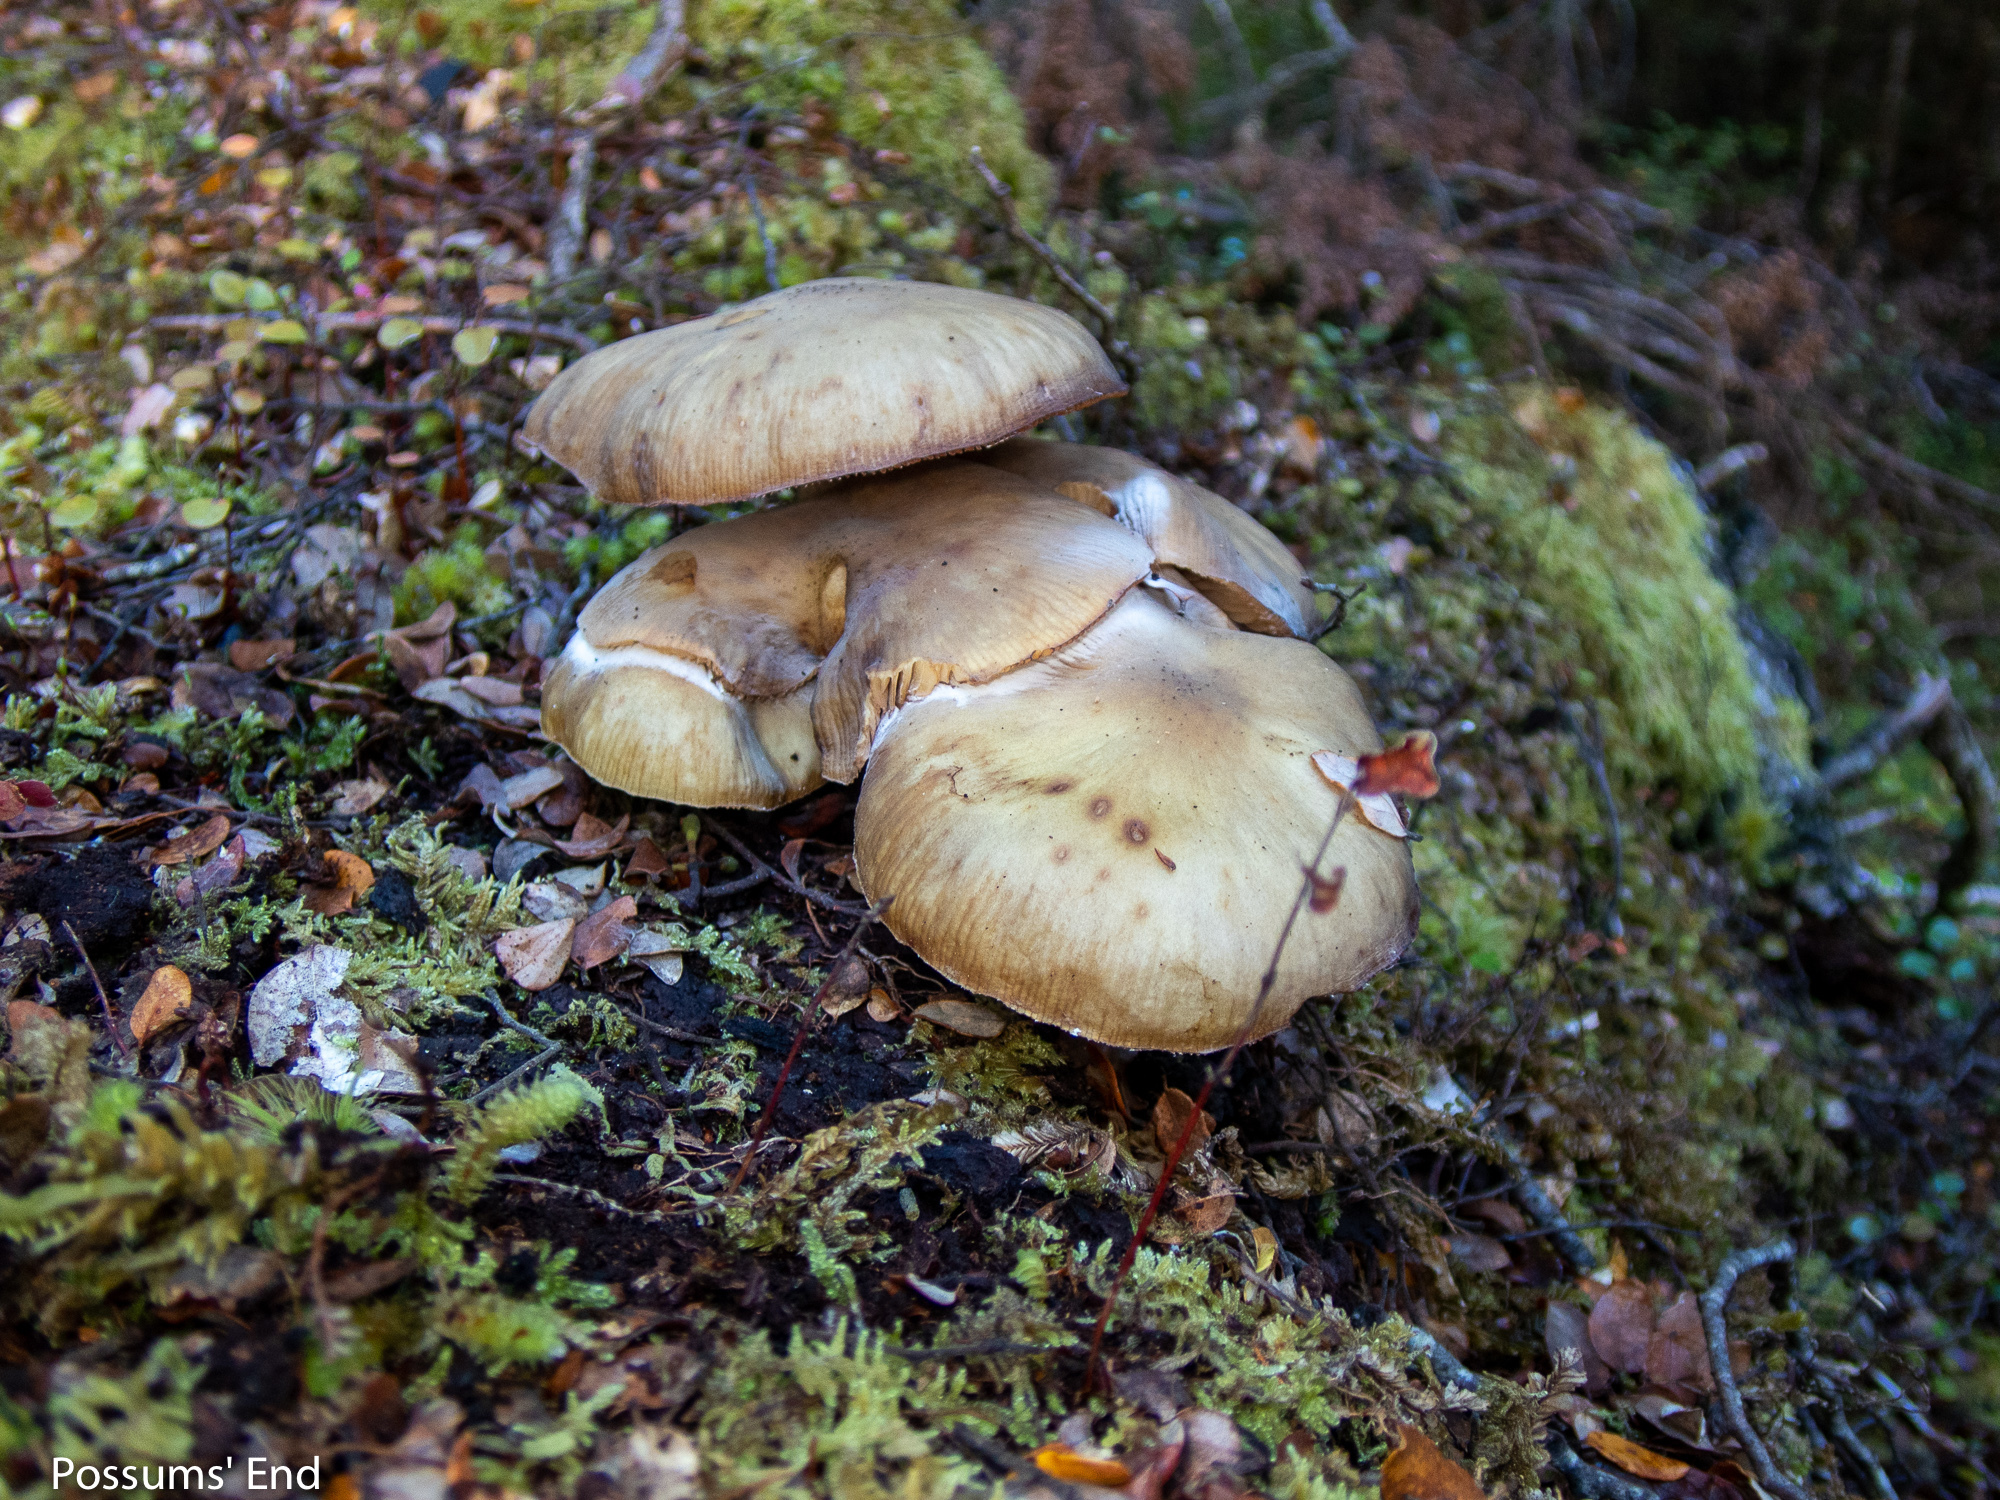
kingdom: Fungi
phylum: Basidiomycota
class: Agaricomycetes
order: Agaricales
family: Physalacriaceae
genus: Armillaria
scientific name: Armillaria novae-zelandiae
